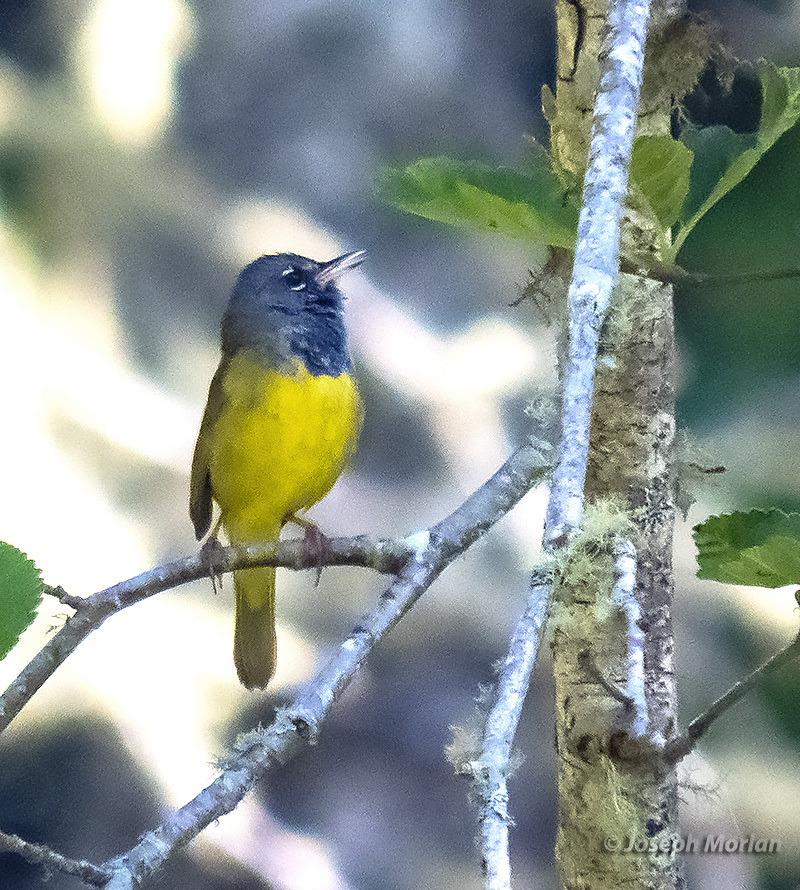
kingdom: Animalia
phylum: Chordata
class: Aves
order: Passeriformes
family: Parulidae
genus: Geothlypis
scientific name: Geothlypis tolmiei
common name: Macgillivray's warbler
